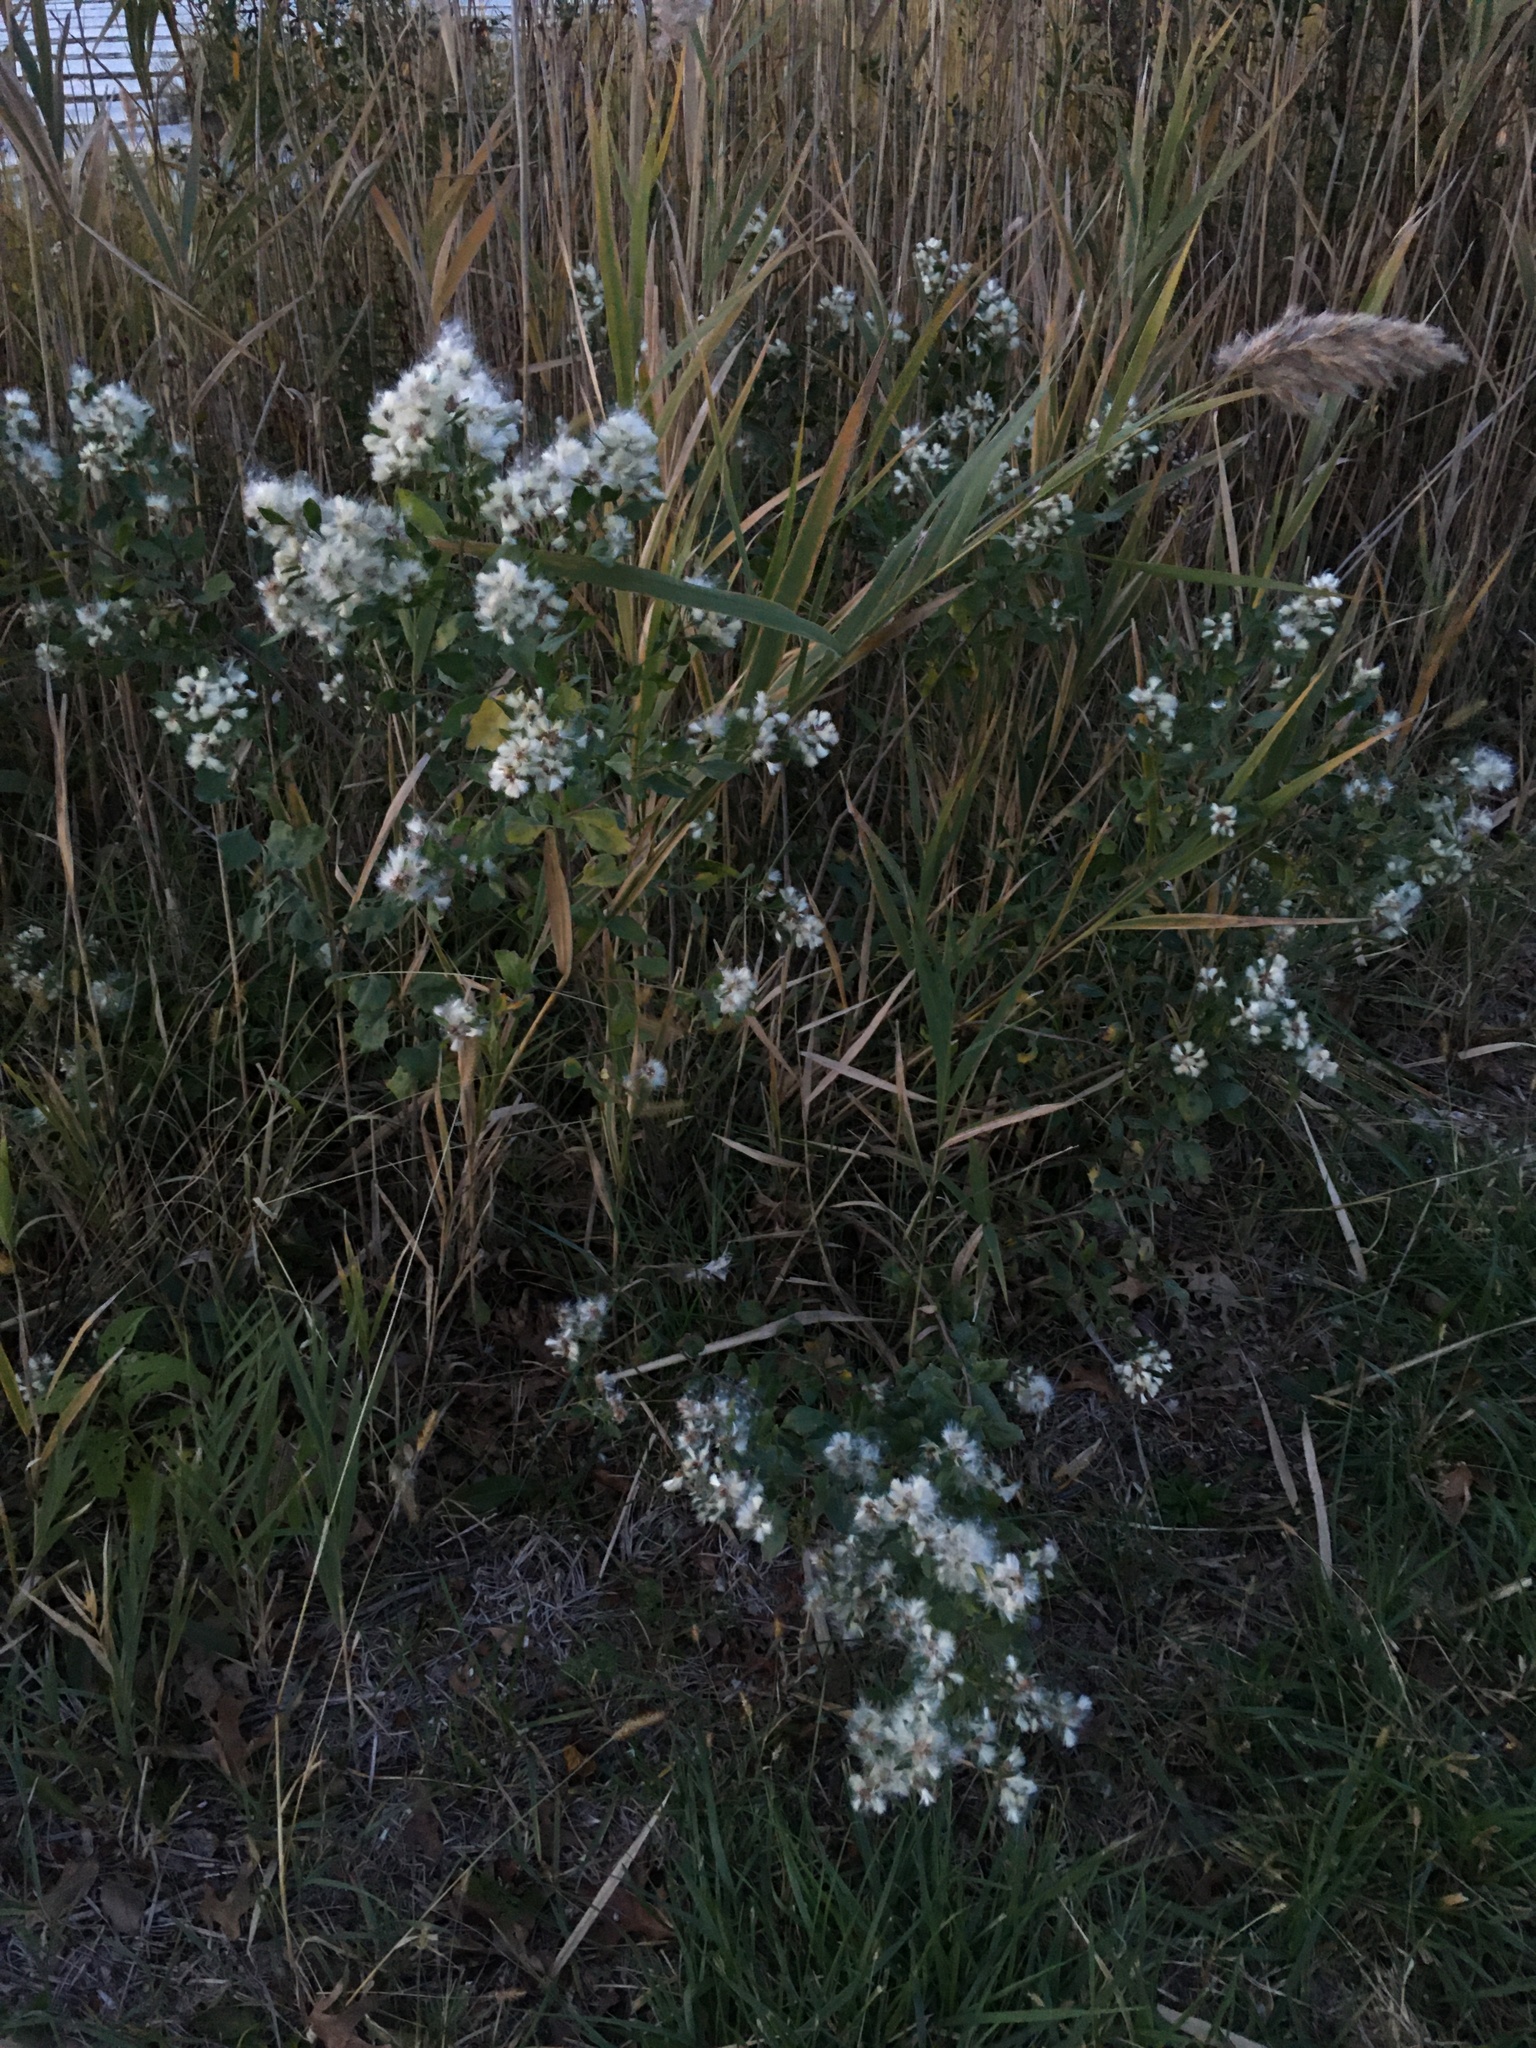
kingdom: Plantae
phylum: Tracheophyta
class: Magnoliopsida
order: Asterales
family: Asteraceae
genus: Baccharis
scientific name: Baccharis halimifolia
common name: Eastern baccharis
